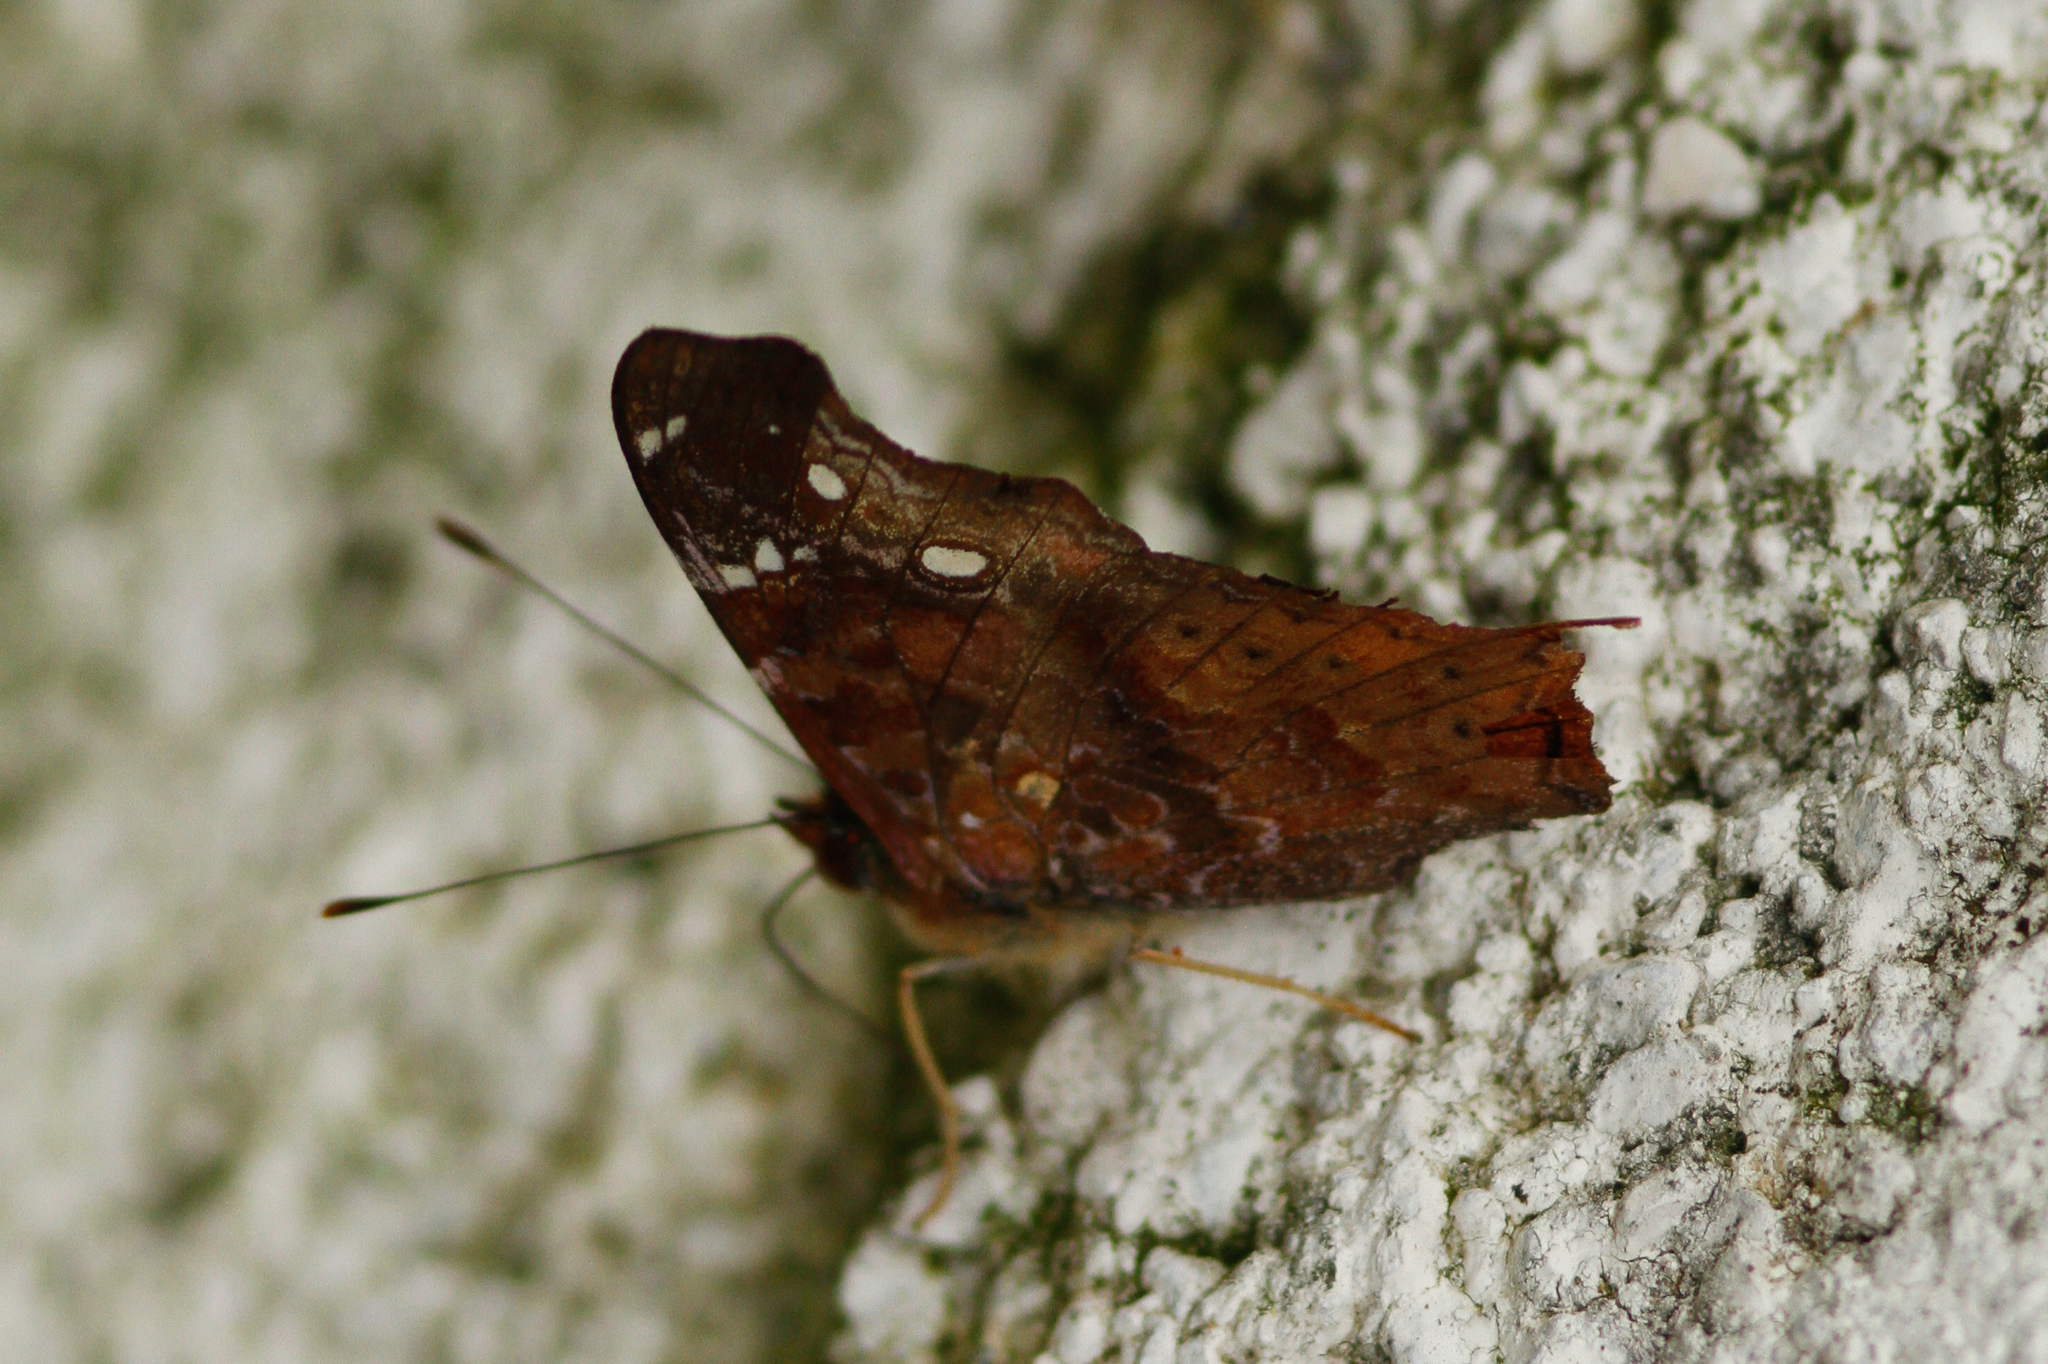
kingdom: Animalia
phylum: Arthropoda
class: Insecta
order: Lepidoptera
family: Nymphalidae
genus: Hypanartia
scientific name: Hypanartia kefersteini
